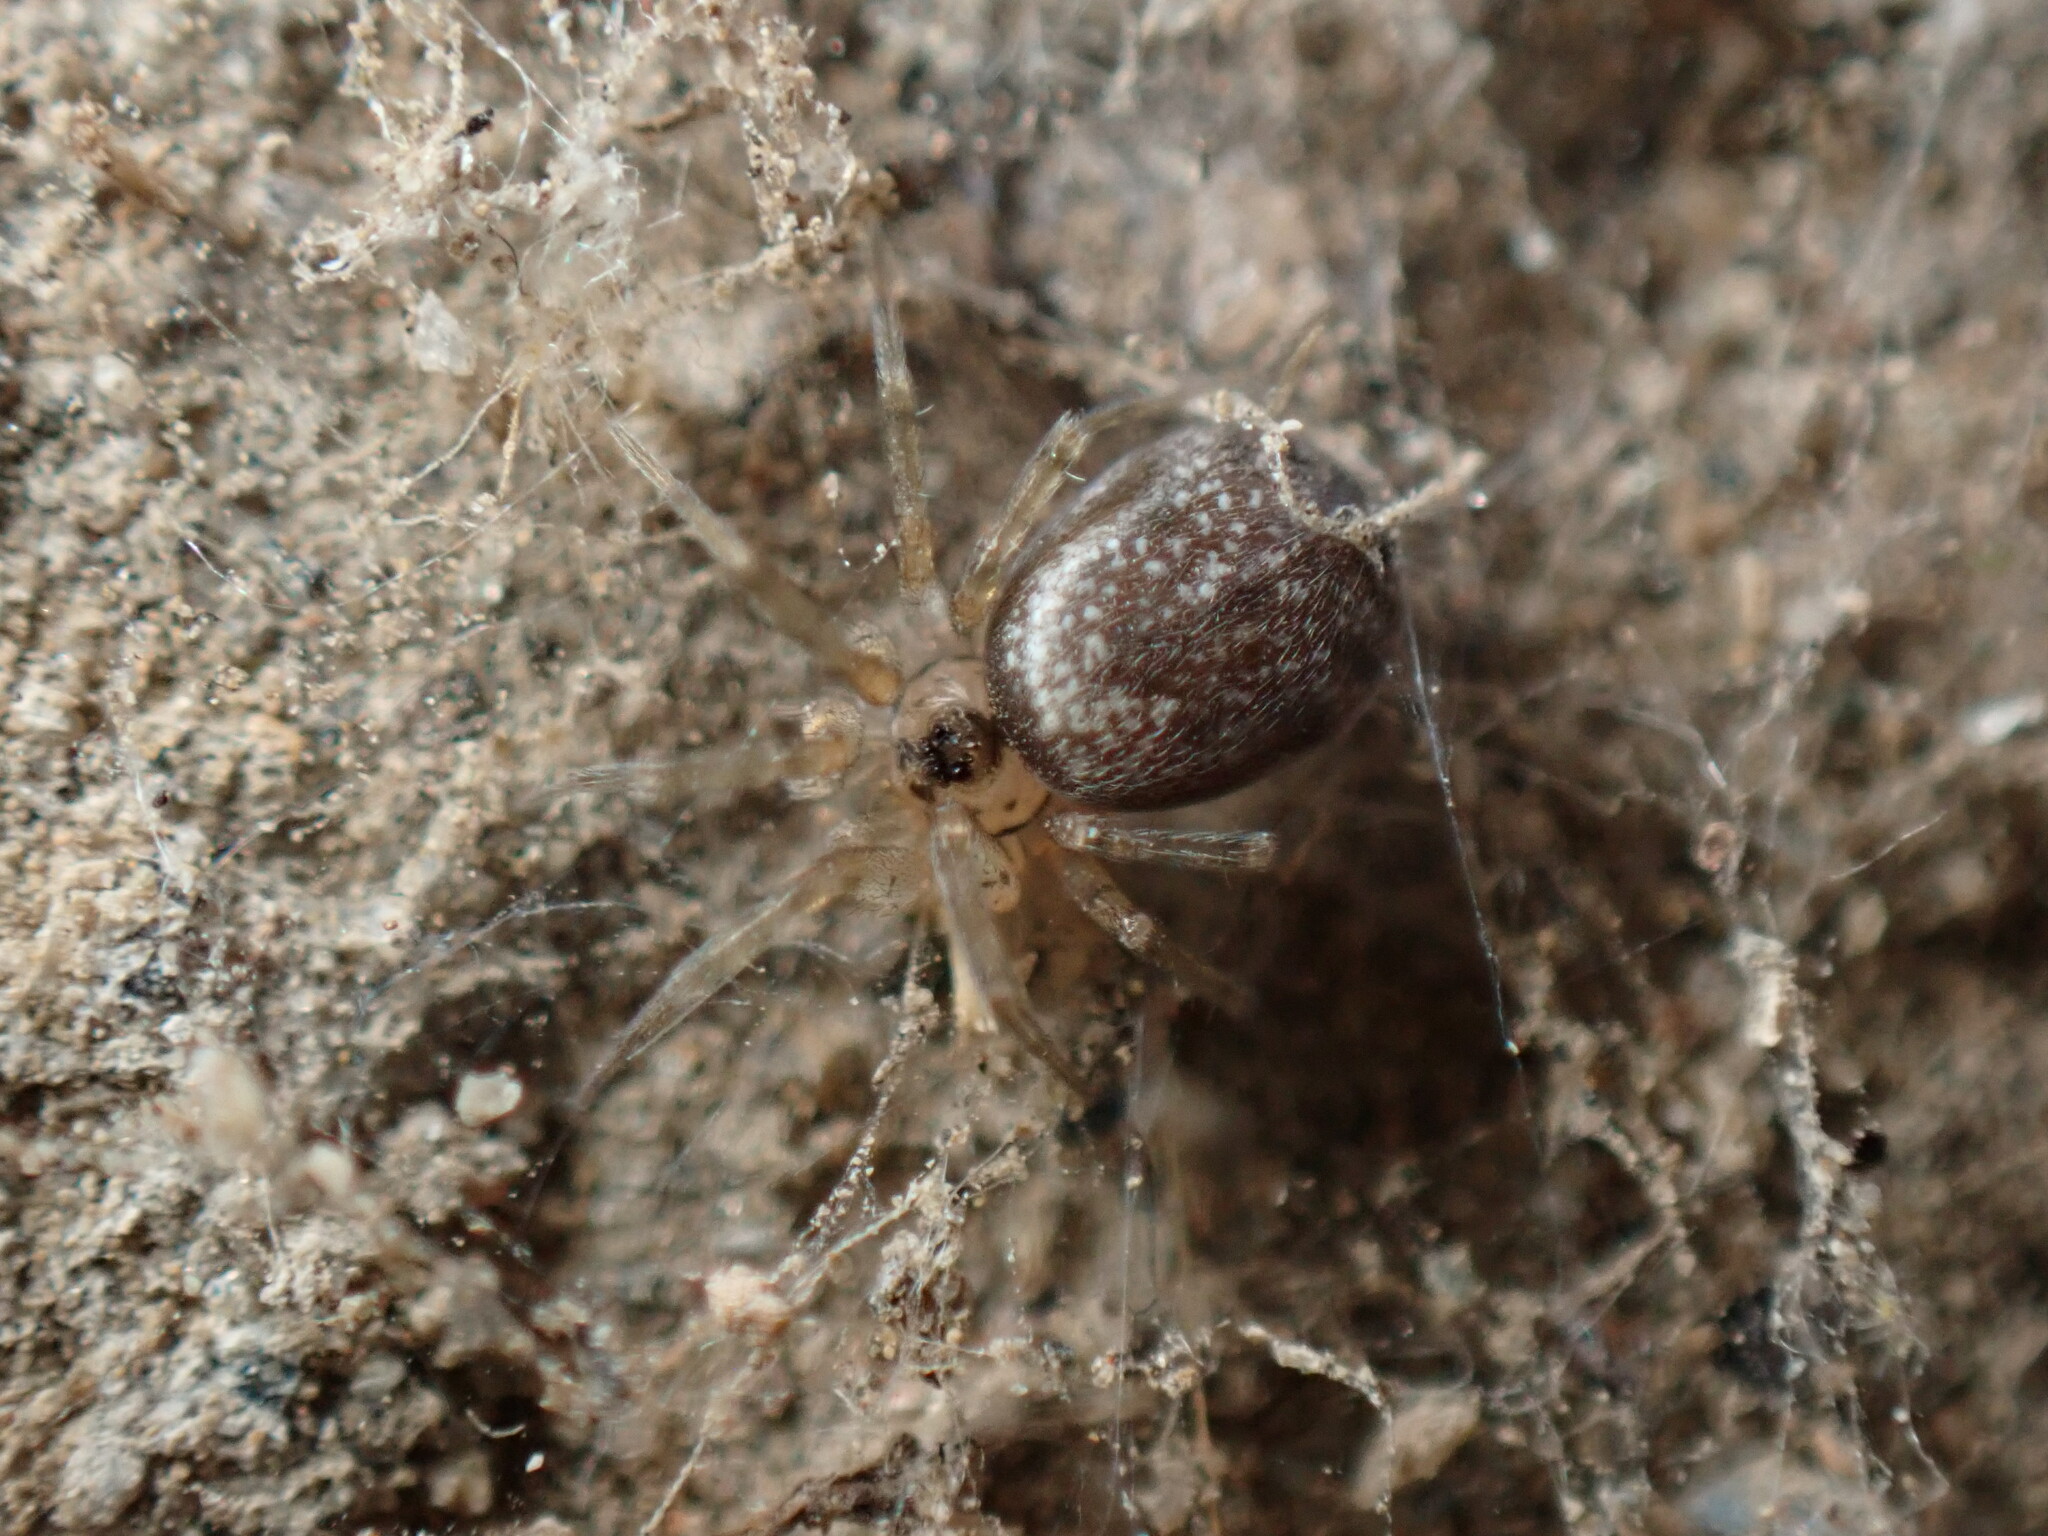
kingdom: Animalia
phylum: Arthropoda
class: Arachnida
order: Araneae
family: Oecobiidae
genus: Oecobius
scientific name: Oecobius navus
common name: Flatmesh weaver
